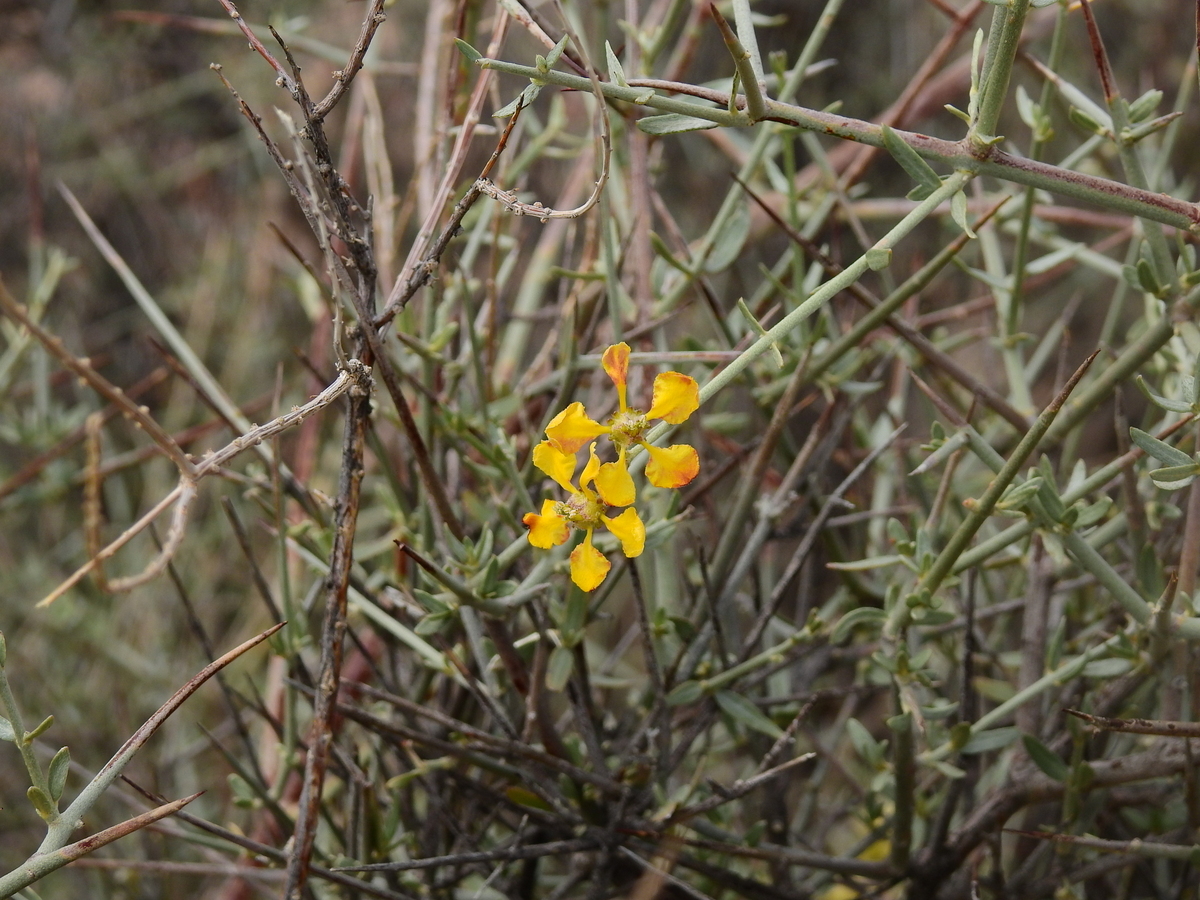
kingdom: Plantae
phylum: Tracheophyta
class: Magnoliopsida
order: Malpighiales
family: Malpighiaceae
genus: Tricomaria
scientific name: Tricomaria usillo
